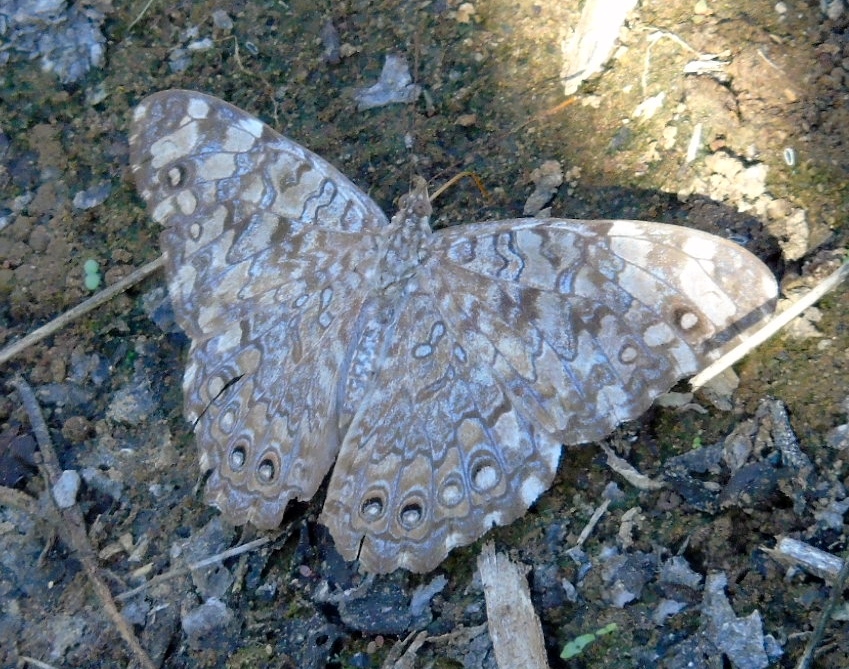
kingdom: Animalia
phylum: Arthropoda
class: Insecta
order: Lepidoptera
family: Nymphalidae
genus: Hamadryas
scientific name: Hamadryas februa
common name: Gray cracker
